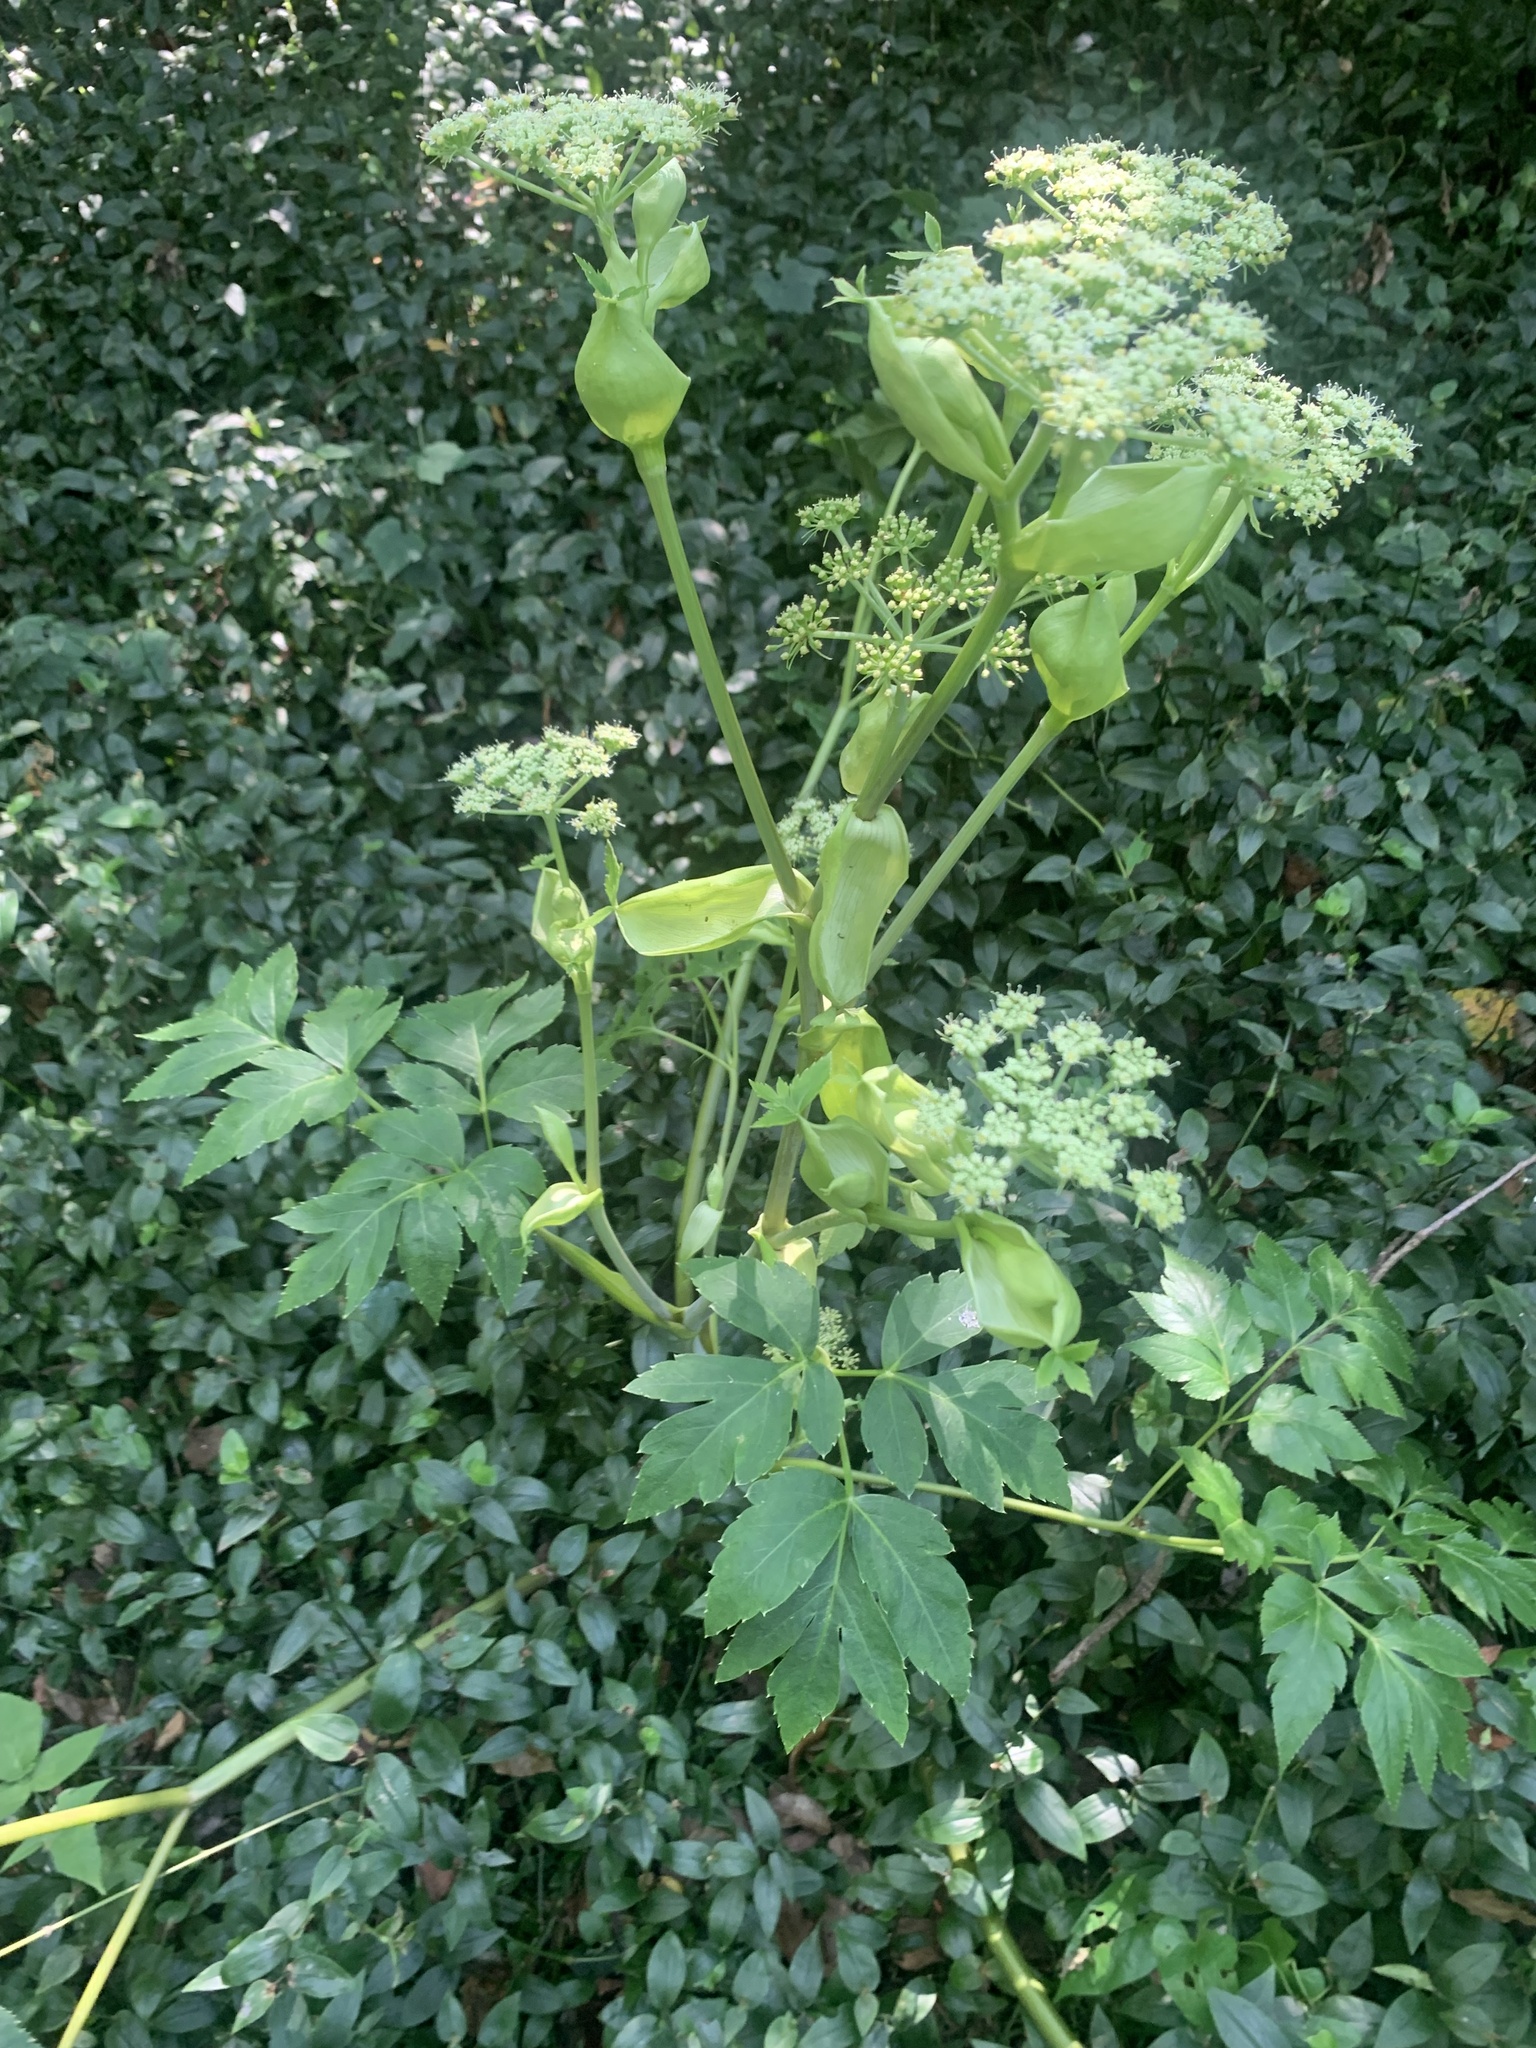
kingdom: Plantae
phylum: Tracheophyta
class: Magnoliopsida
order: Apiales
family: Apiaceae
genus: Angelica
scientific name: Angelica keiskei
